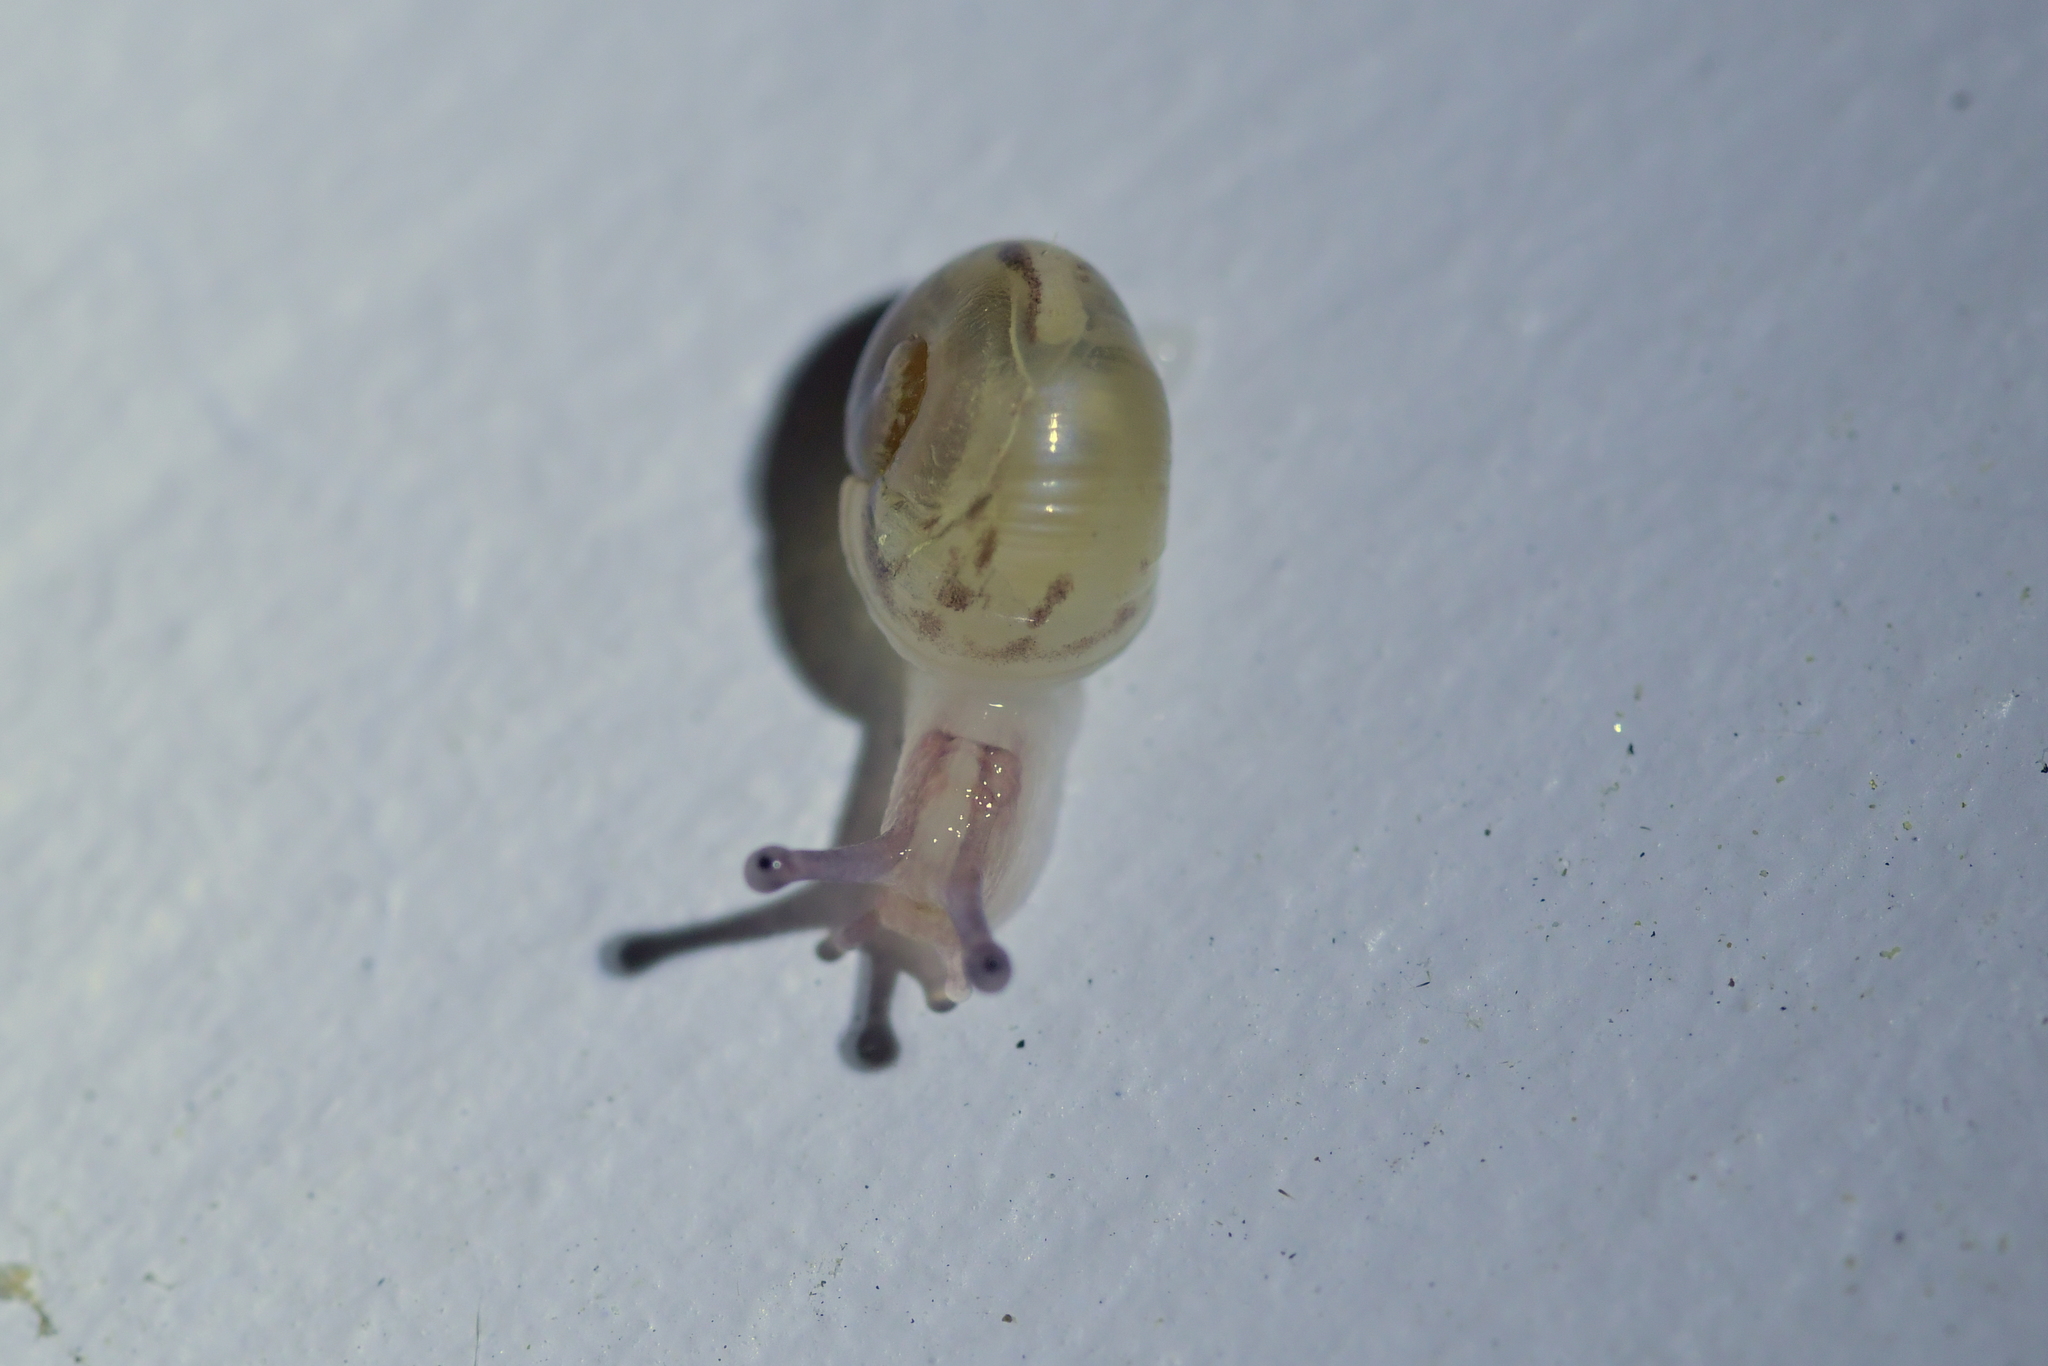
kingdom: Animalia
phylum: Mollusca
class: Gastropoda
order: Stylommatophora
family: Helicidae
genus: Cornu
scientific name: Cornu aspersum
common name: Brown garden snail
